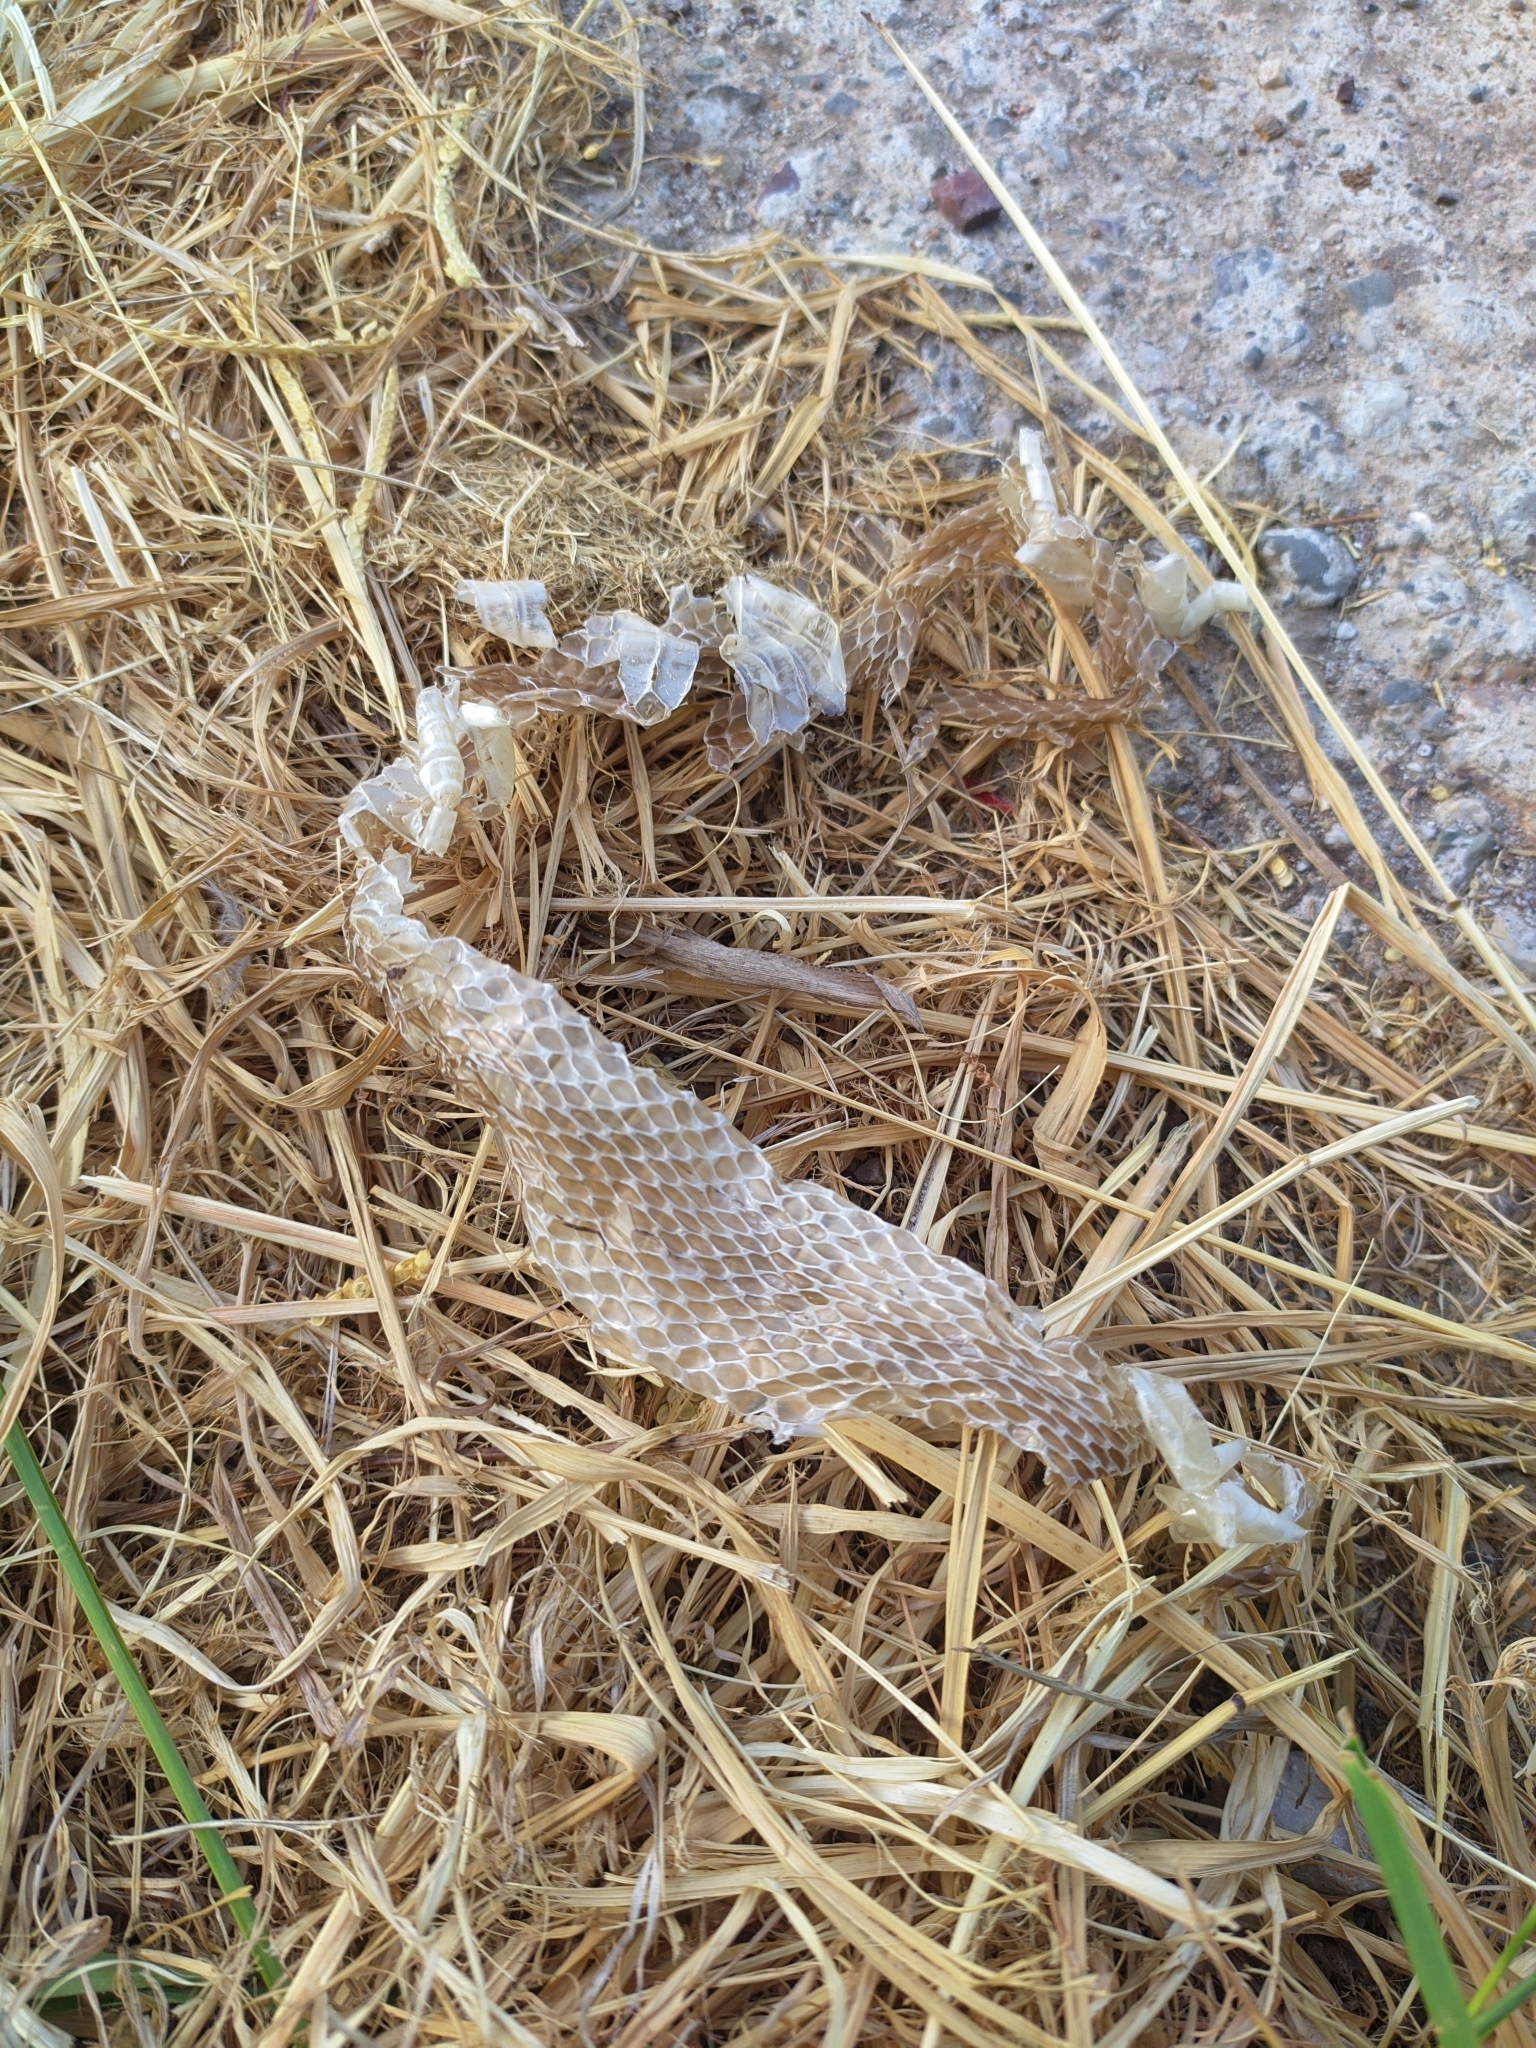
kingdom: Animalia
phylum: Chordata
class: Squamata
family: Colubridae
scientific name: Colubridae
